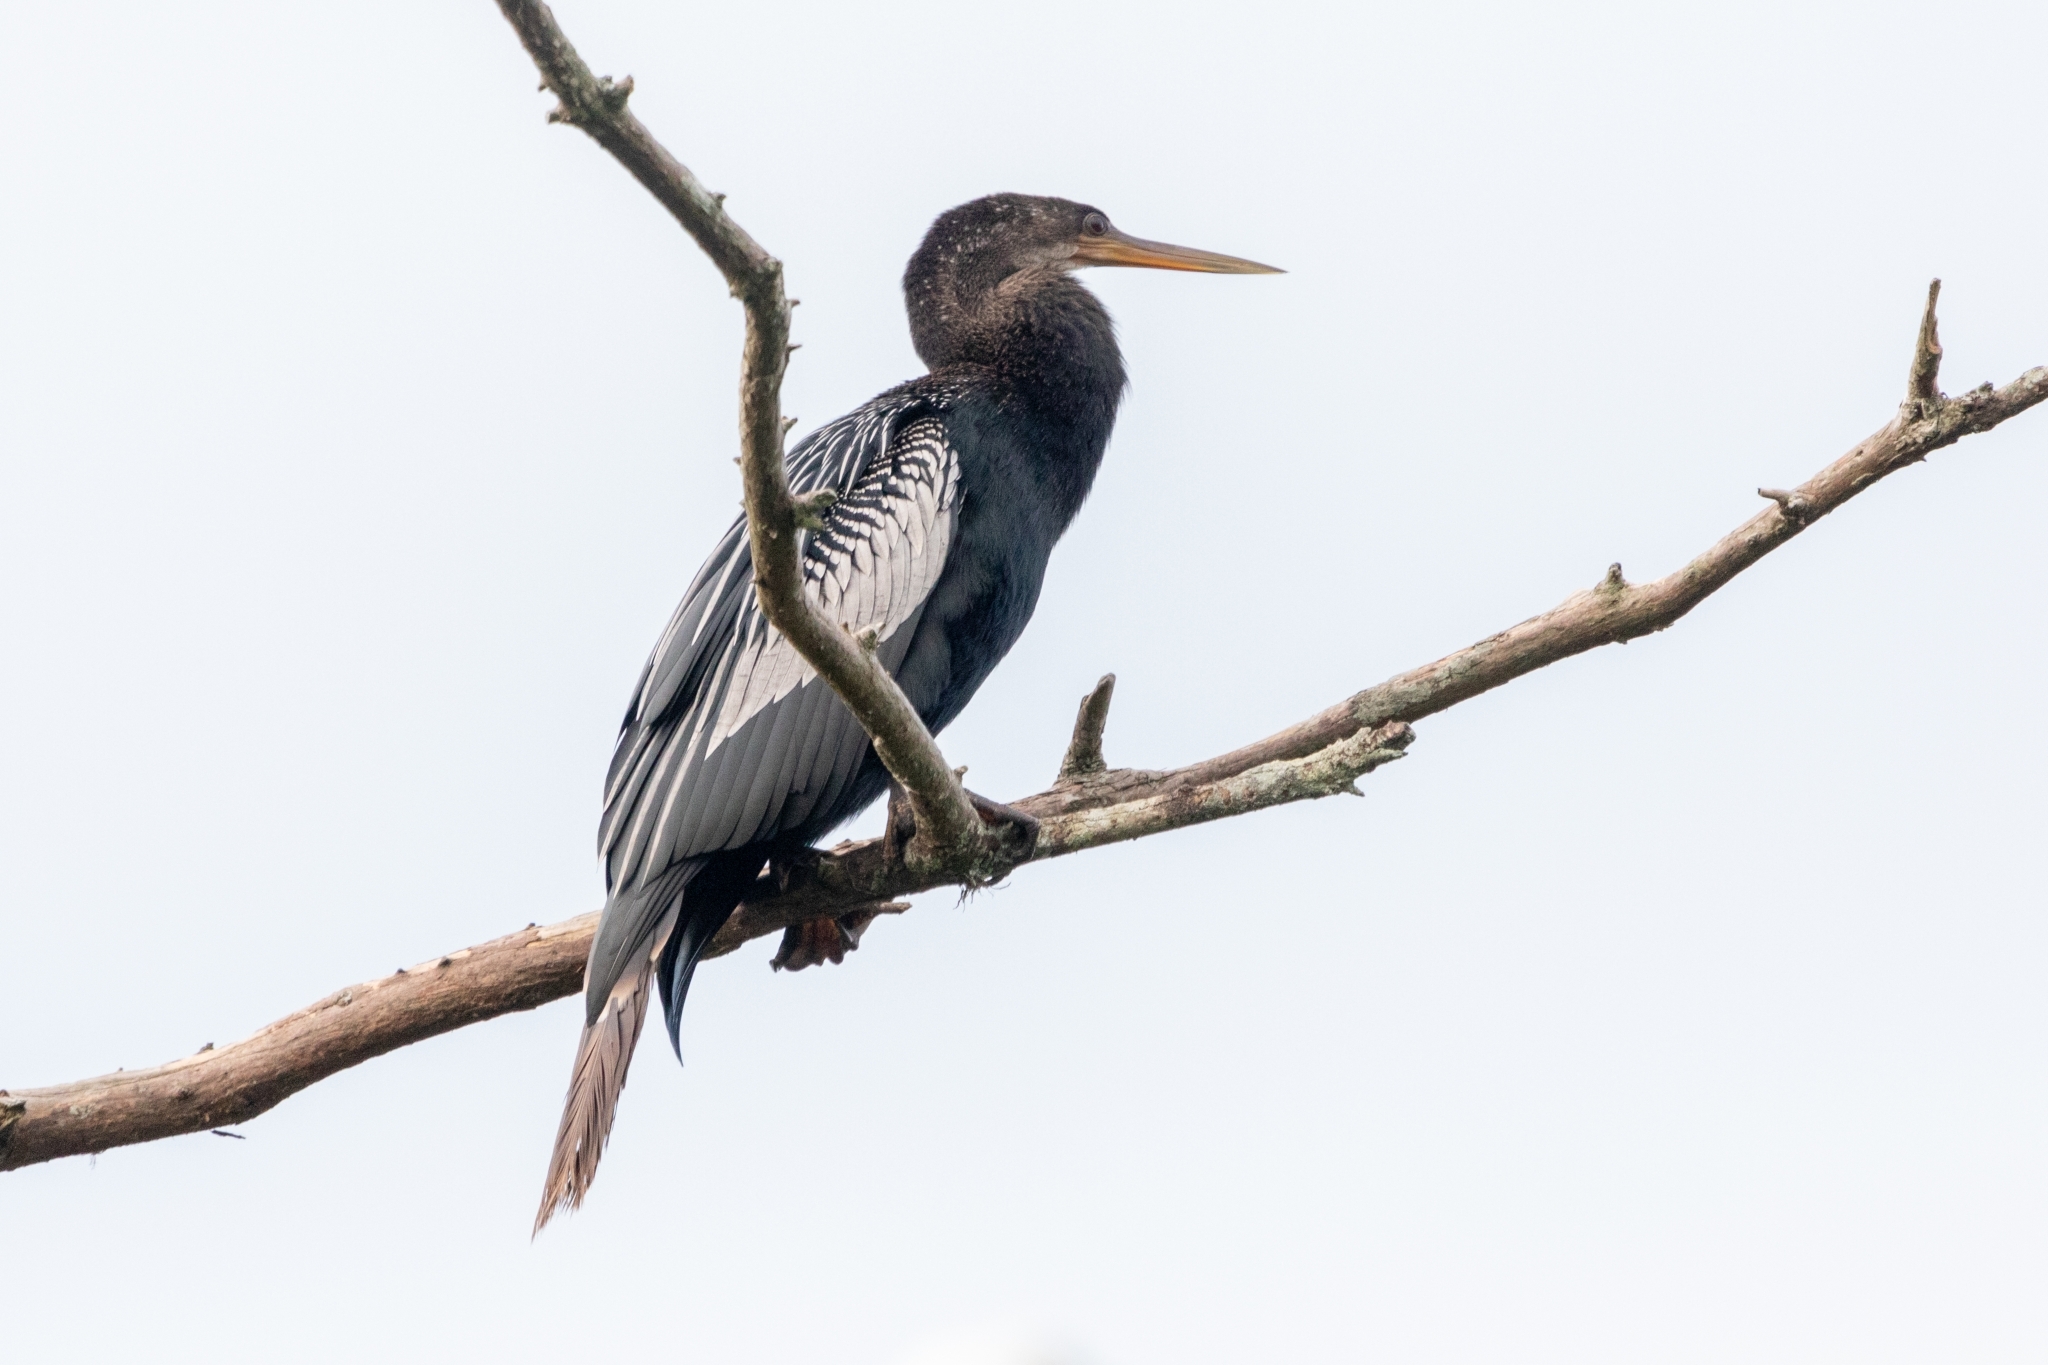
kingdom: Animalia
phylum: Chordata
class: Aves
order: Suliformes
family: Anhingidae
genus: Anhinga
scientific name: Anhinga anhinga
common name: Anhinga
